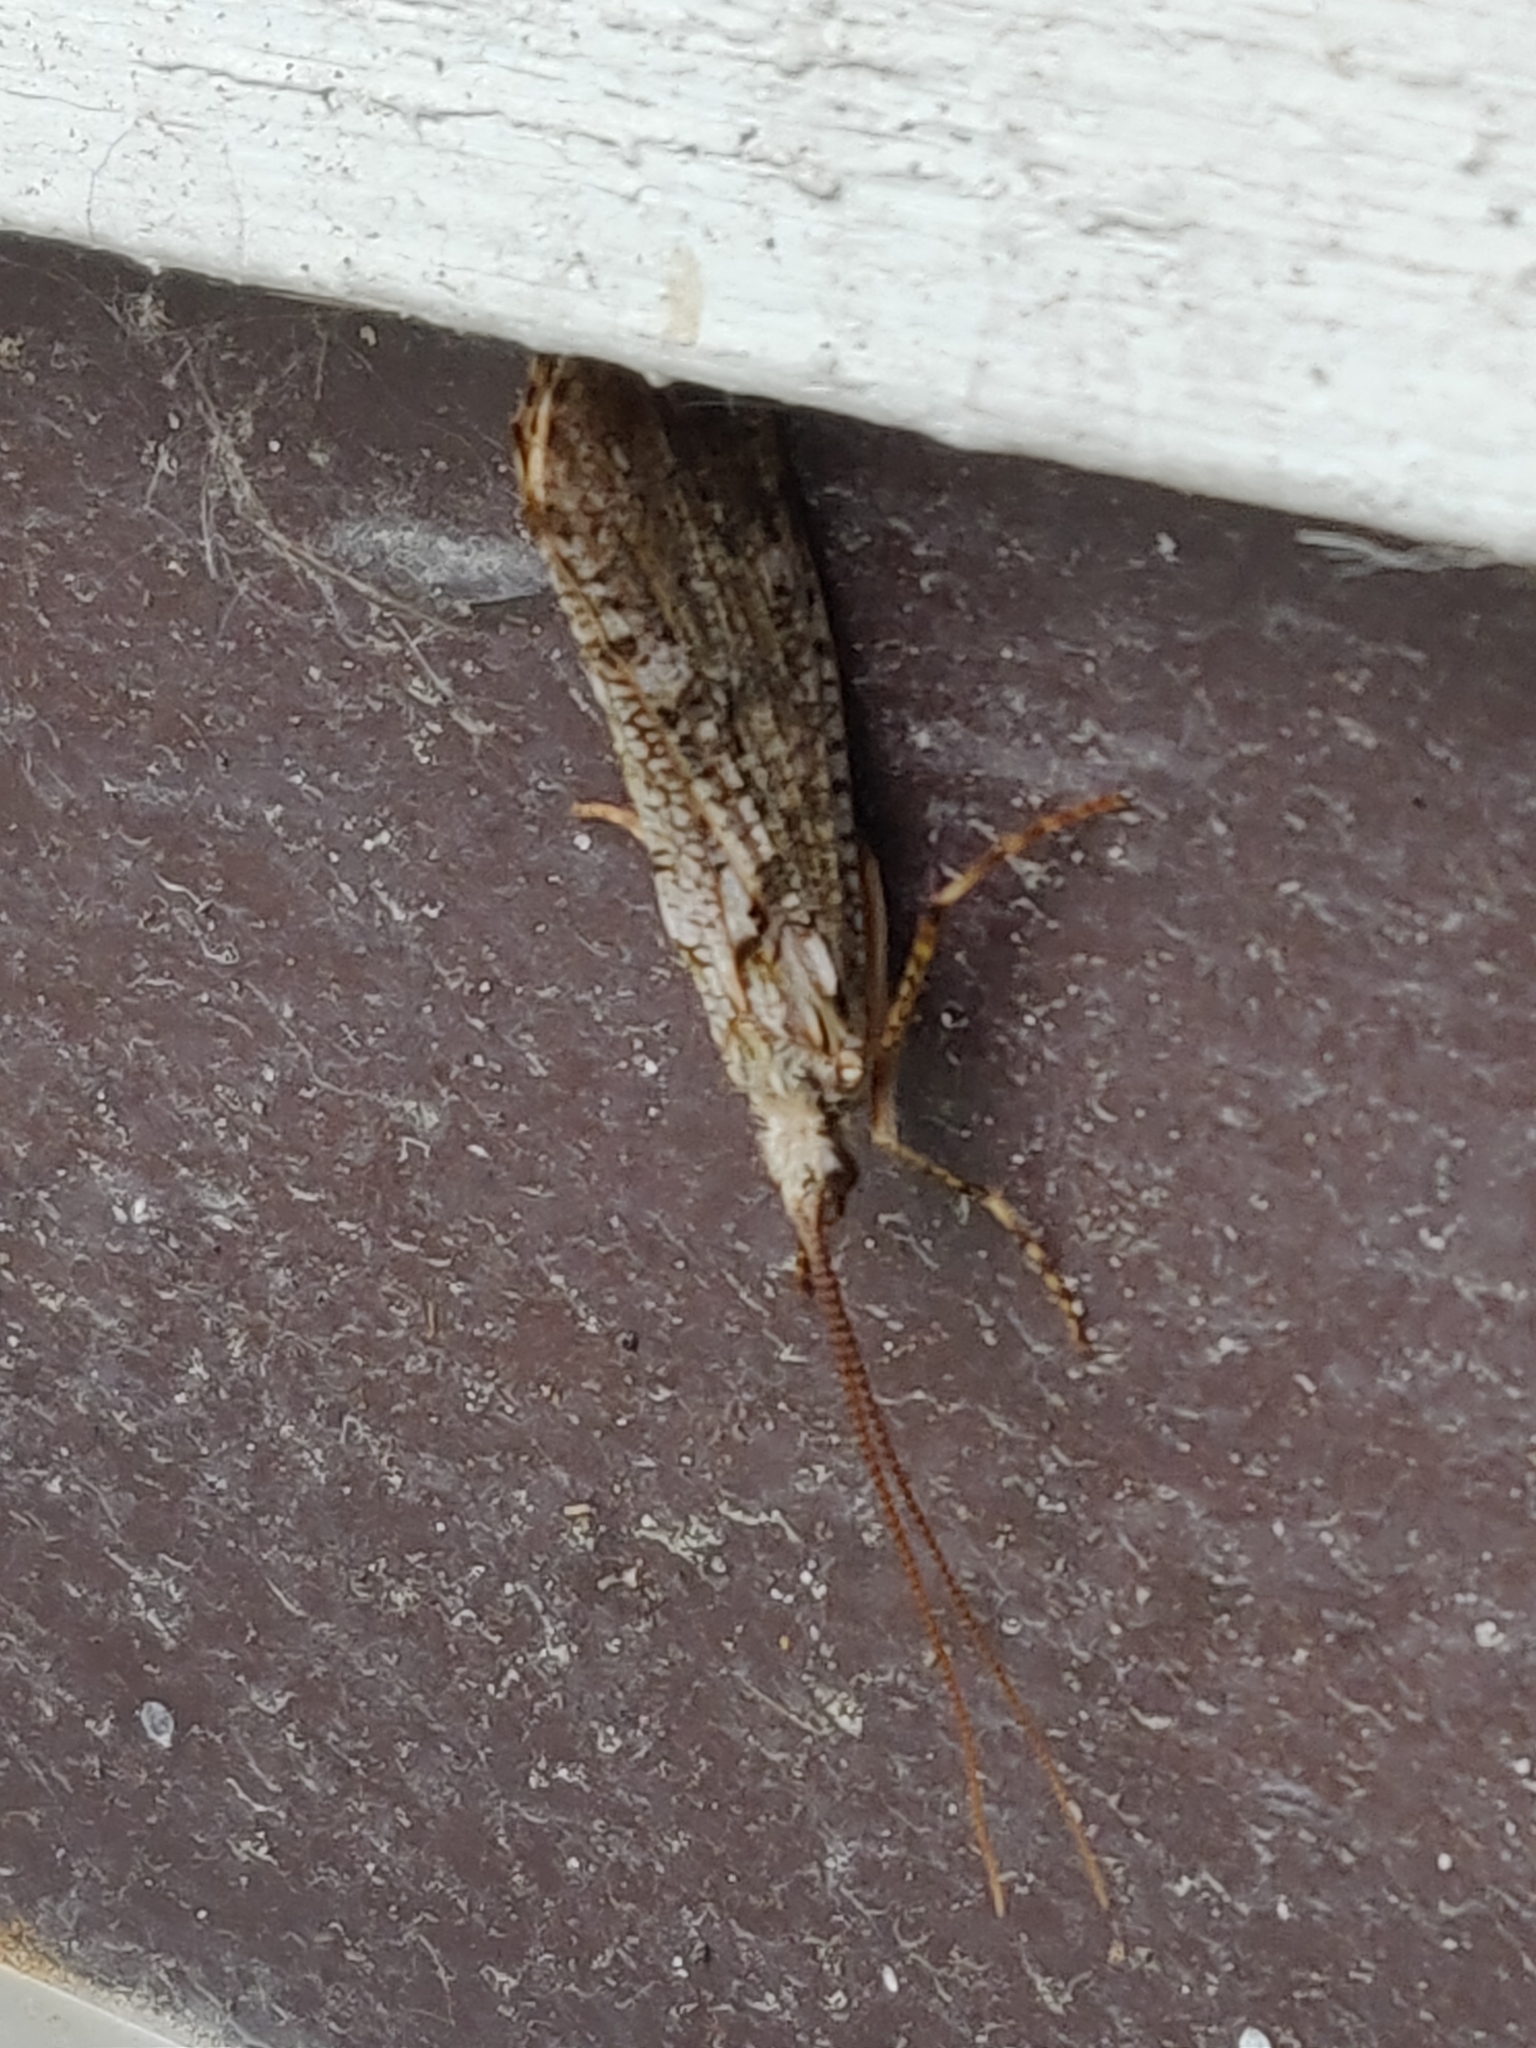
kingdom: Animalia
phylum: Arthropoda
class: Insecta
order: Trichoptera
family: Phryganeidae
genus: Phryganea
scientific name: Phryganea grandis
